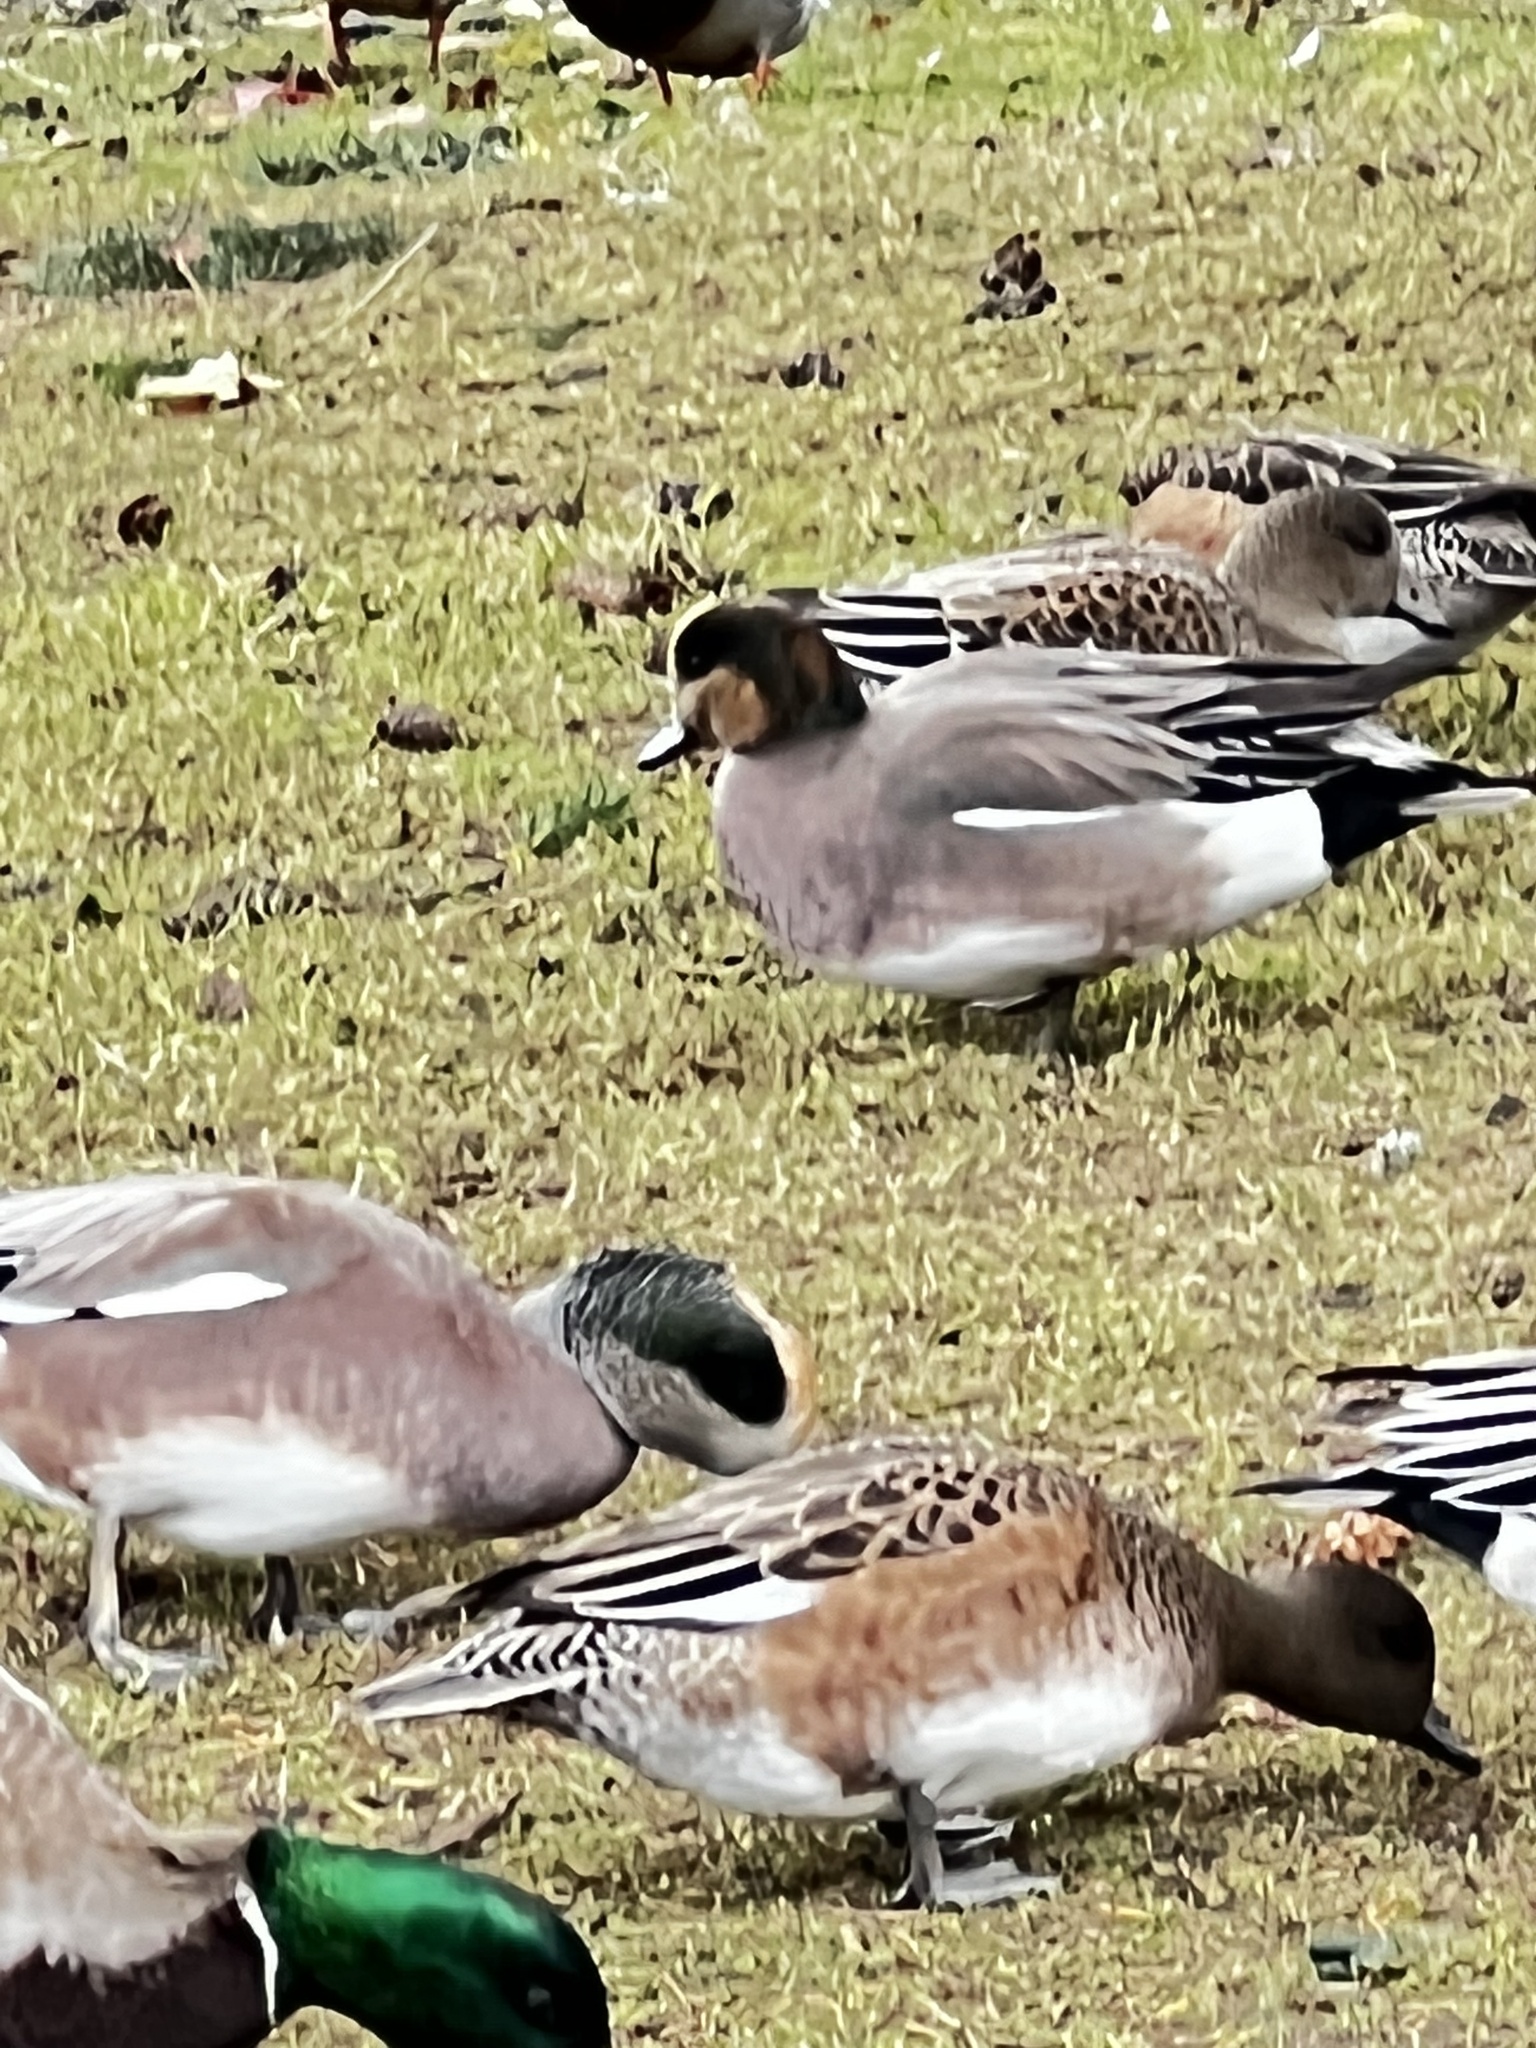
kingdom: Animalia
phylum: Chordata
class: Aves
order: Anseriformes
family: Anatidae
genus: Mareca
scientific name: Mareca
